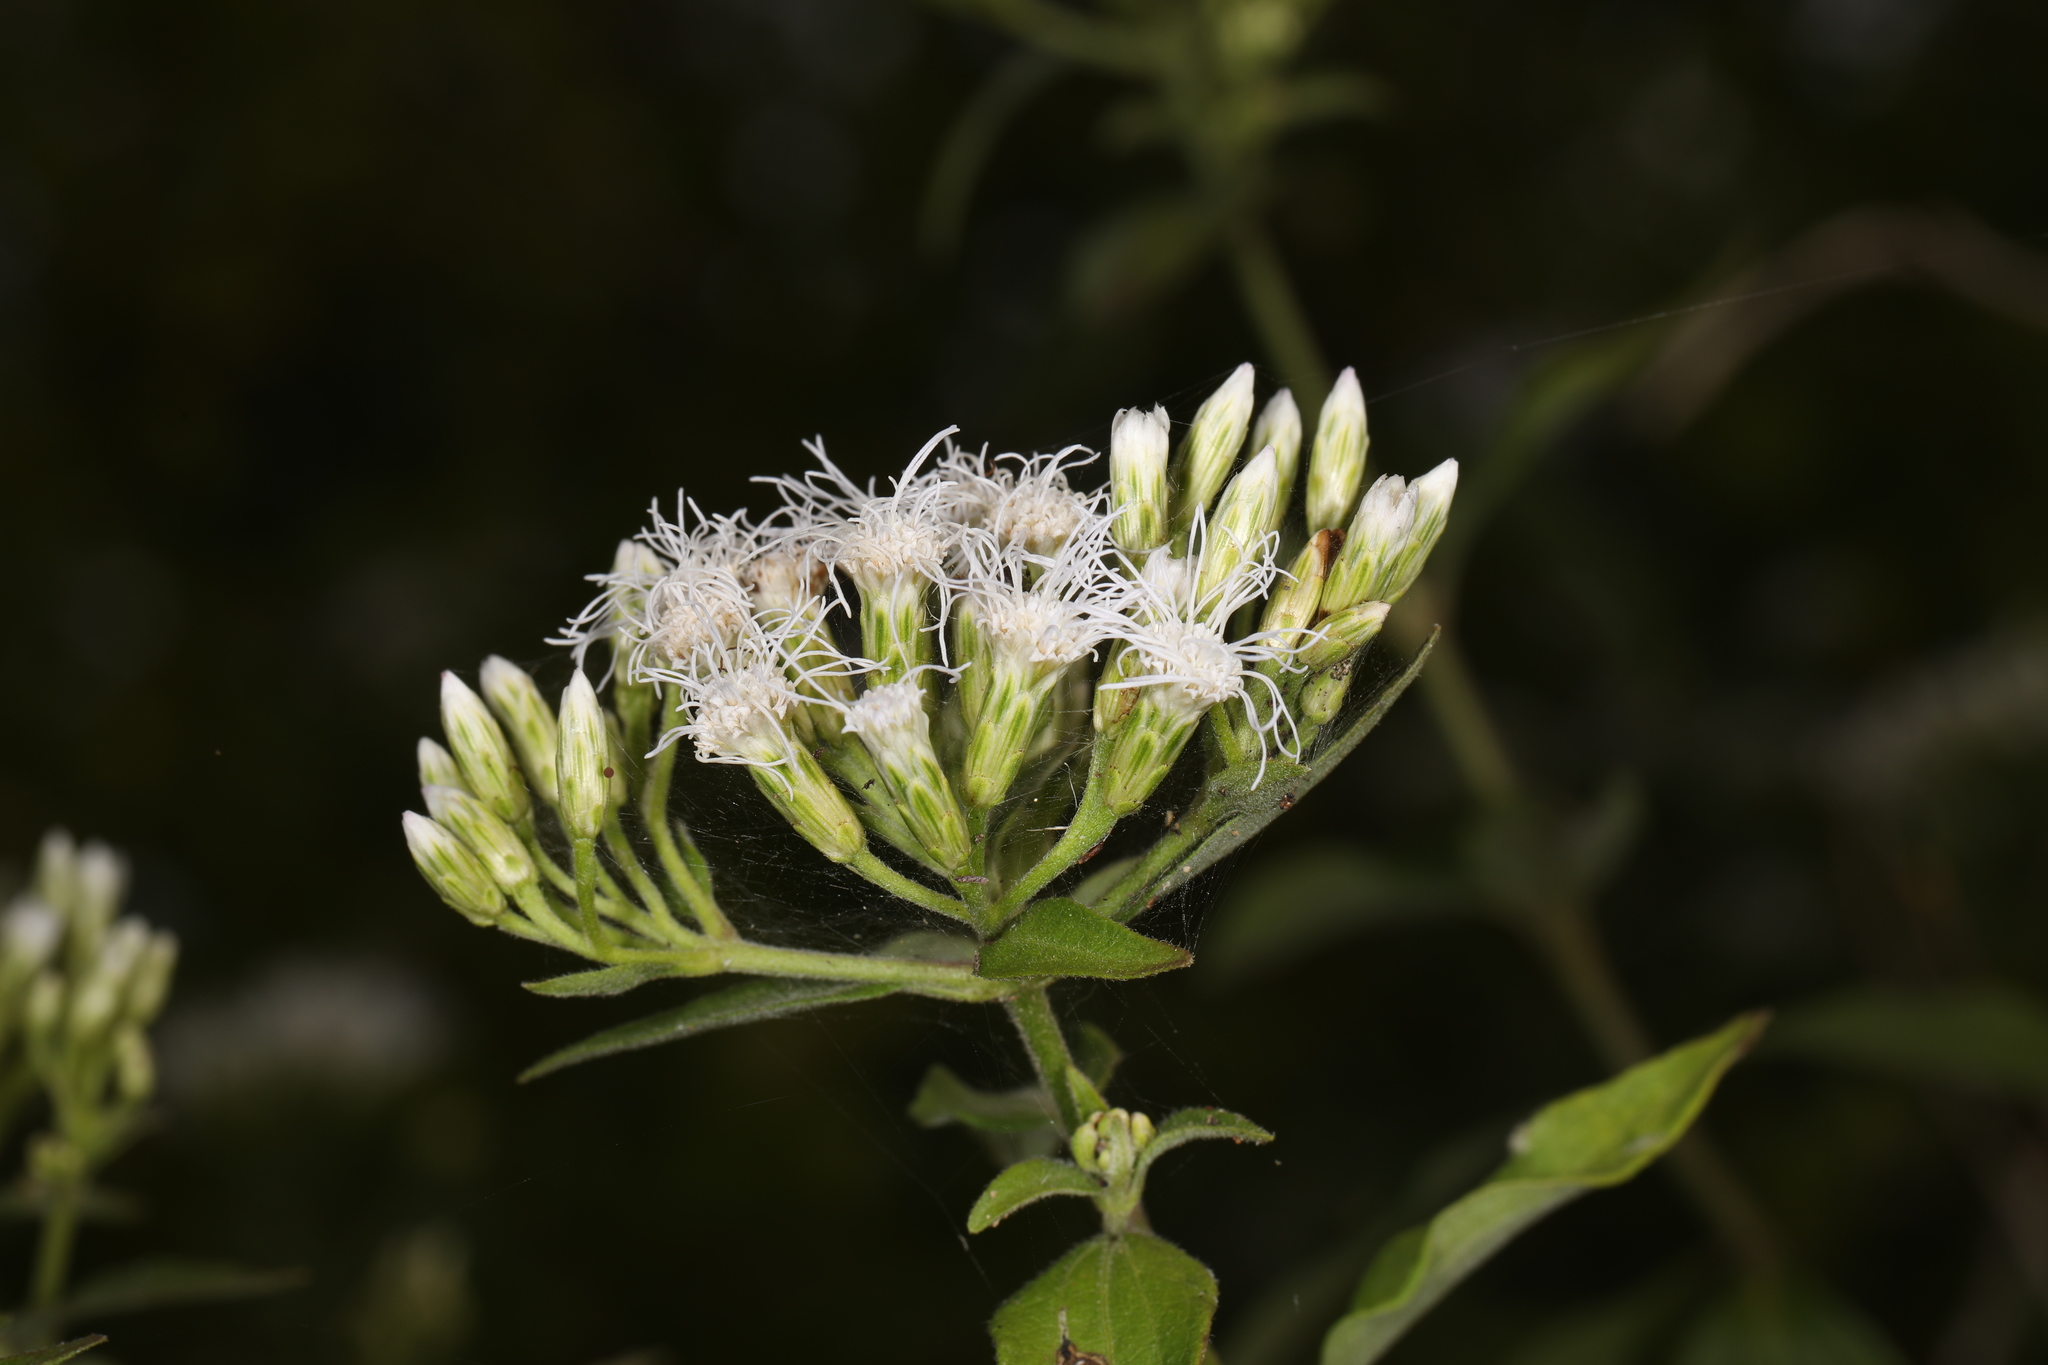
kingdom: Plantae
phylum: Tracheophyta
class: Magnoliopsida
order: Asterales
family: Asteraceae
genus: Chromolaena
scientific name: Chromolaena odorata
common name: Siamweed
